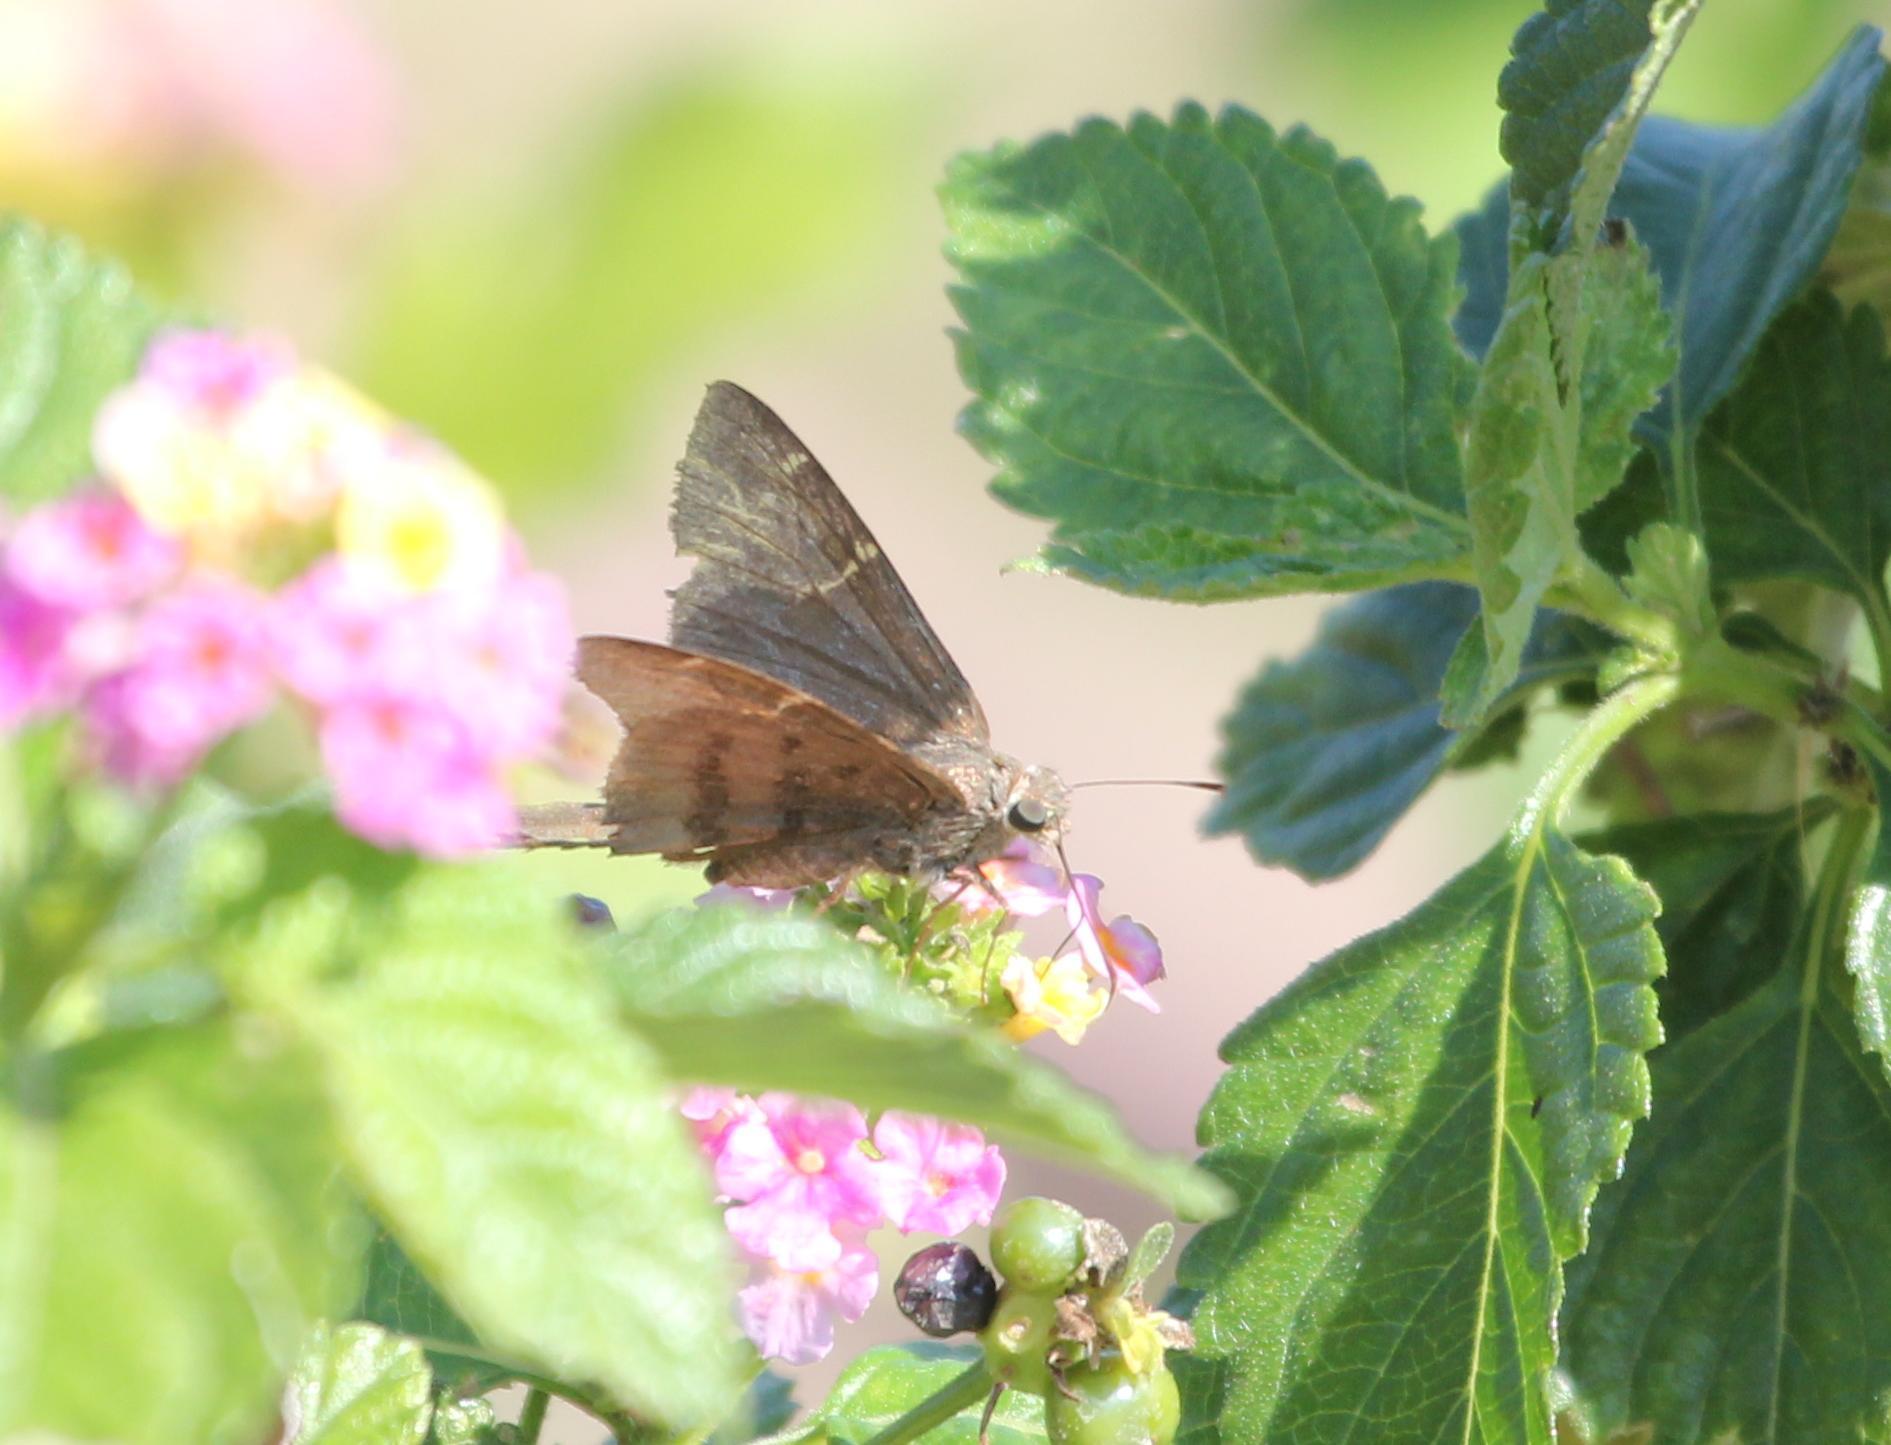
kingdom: Animalia
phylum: Arthropoda
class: Insecta
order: Lepidoptera
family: Hesperiidae
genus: Urbanus
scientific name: Urbanus procne
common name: Brown longtail
